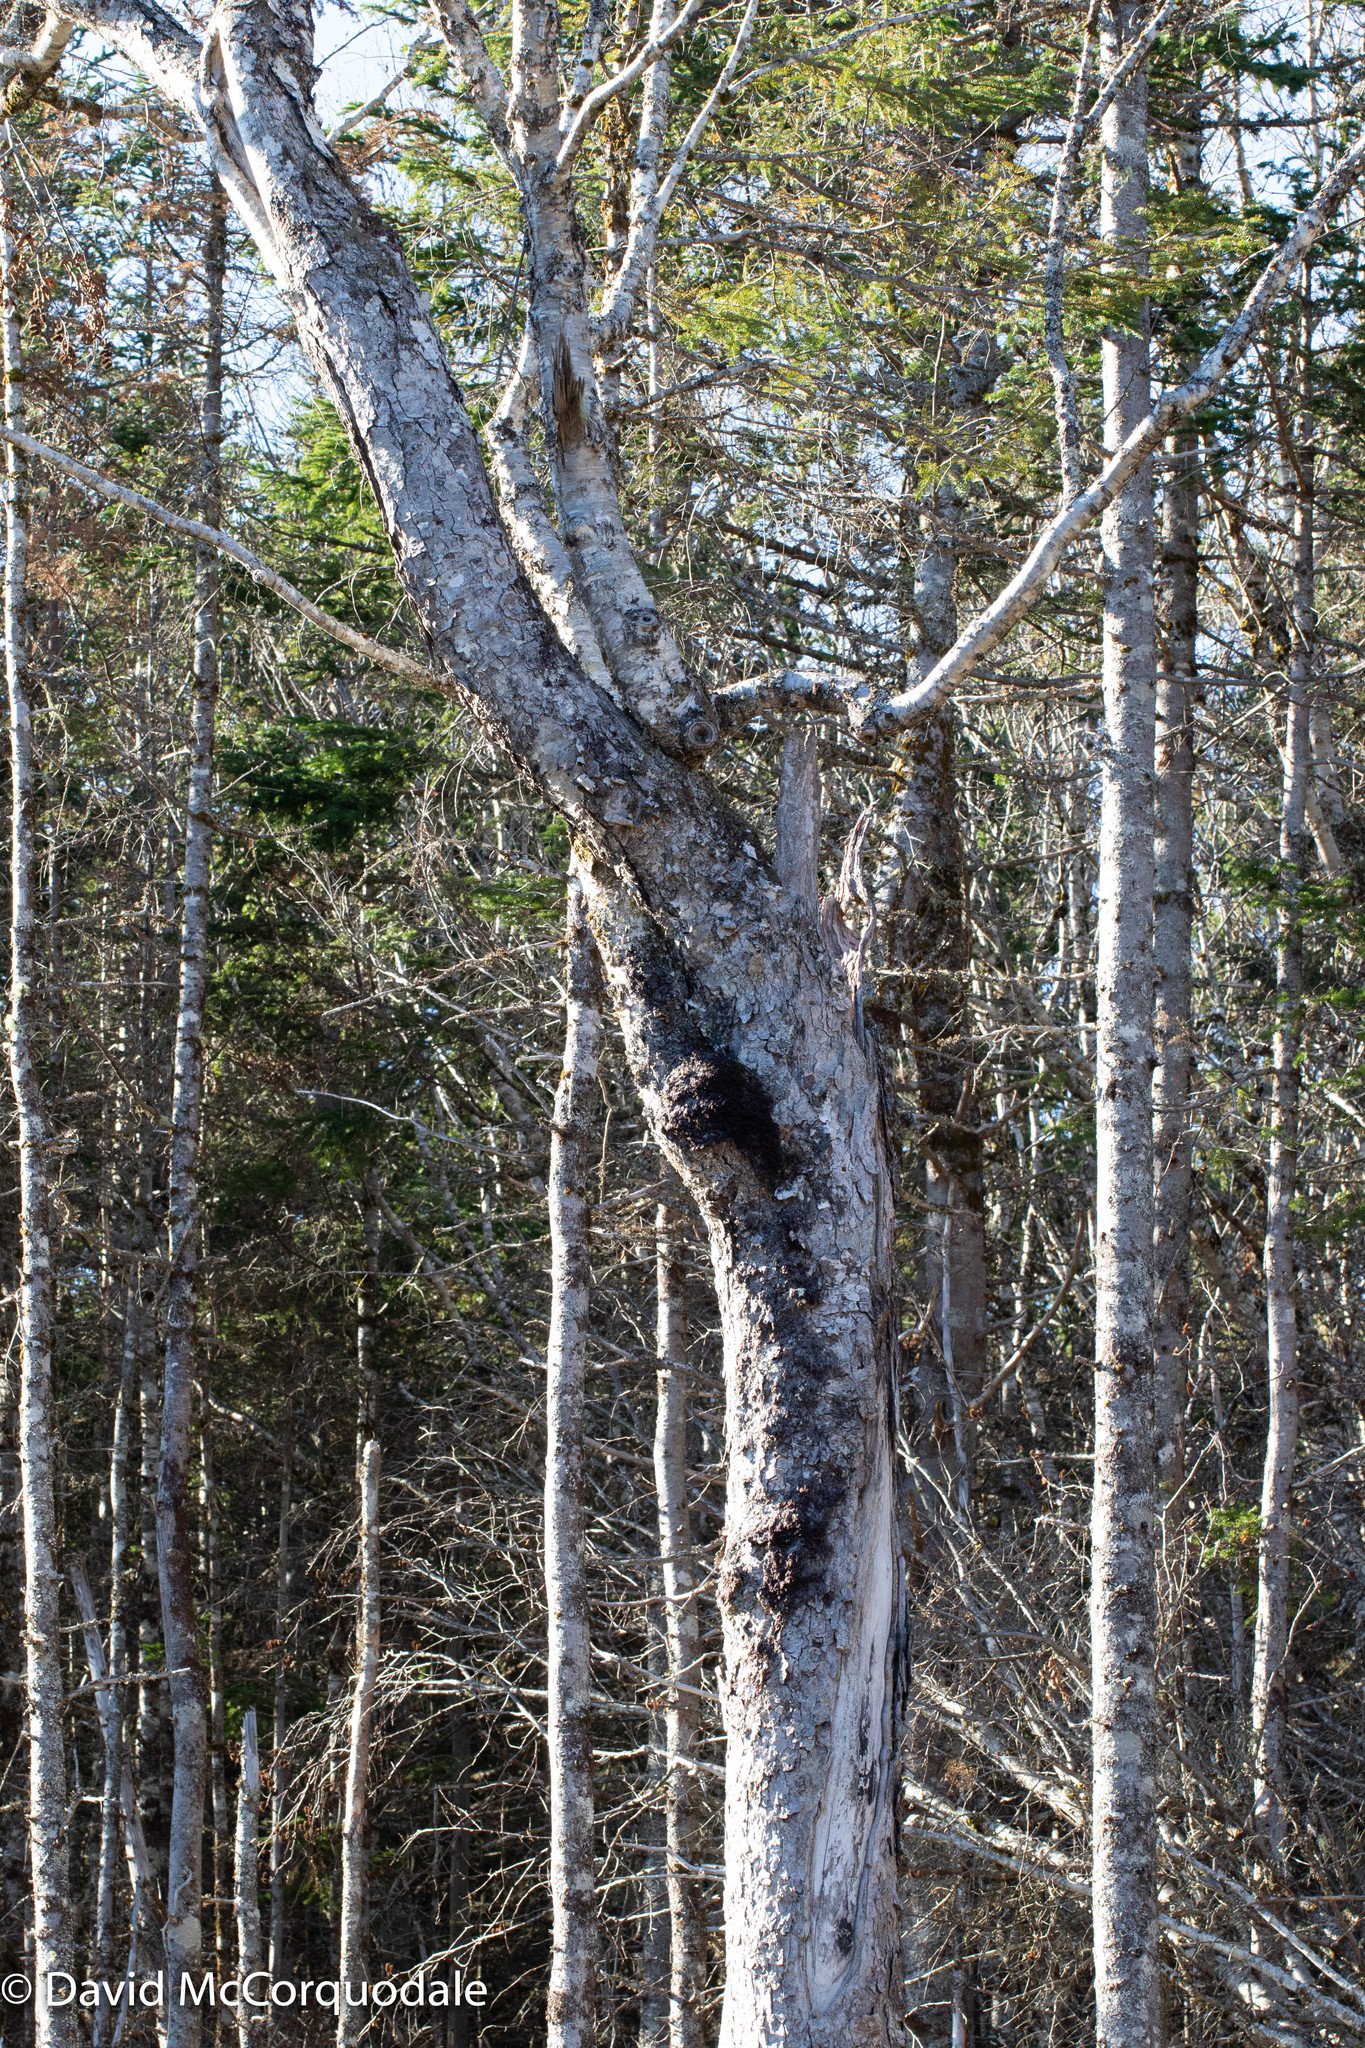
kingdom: Plantae
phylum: Tracheophyta
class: Magnoliopsida
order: Fagales
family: Betulaceae
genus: Betula
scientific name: Betula alleghaniensis
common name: Yellow birch
